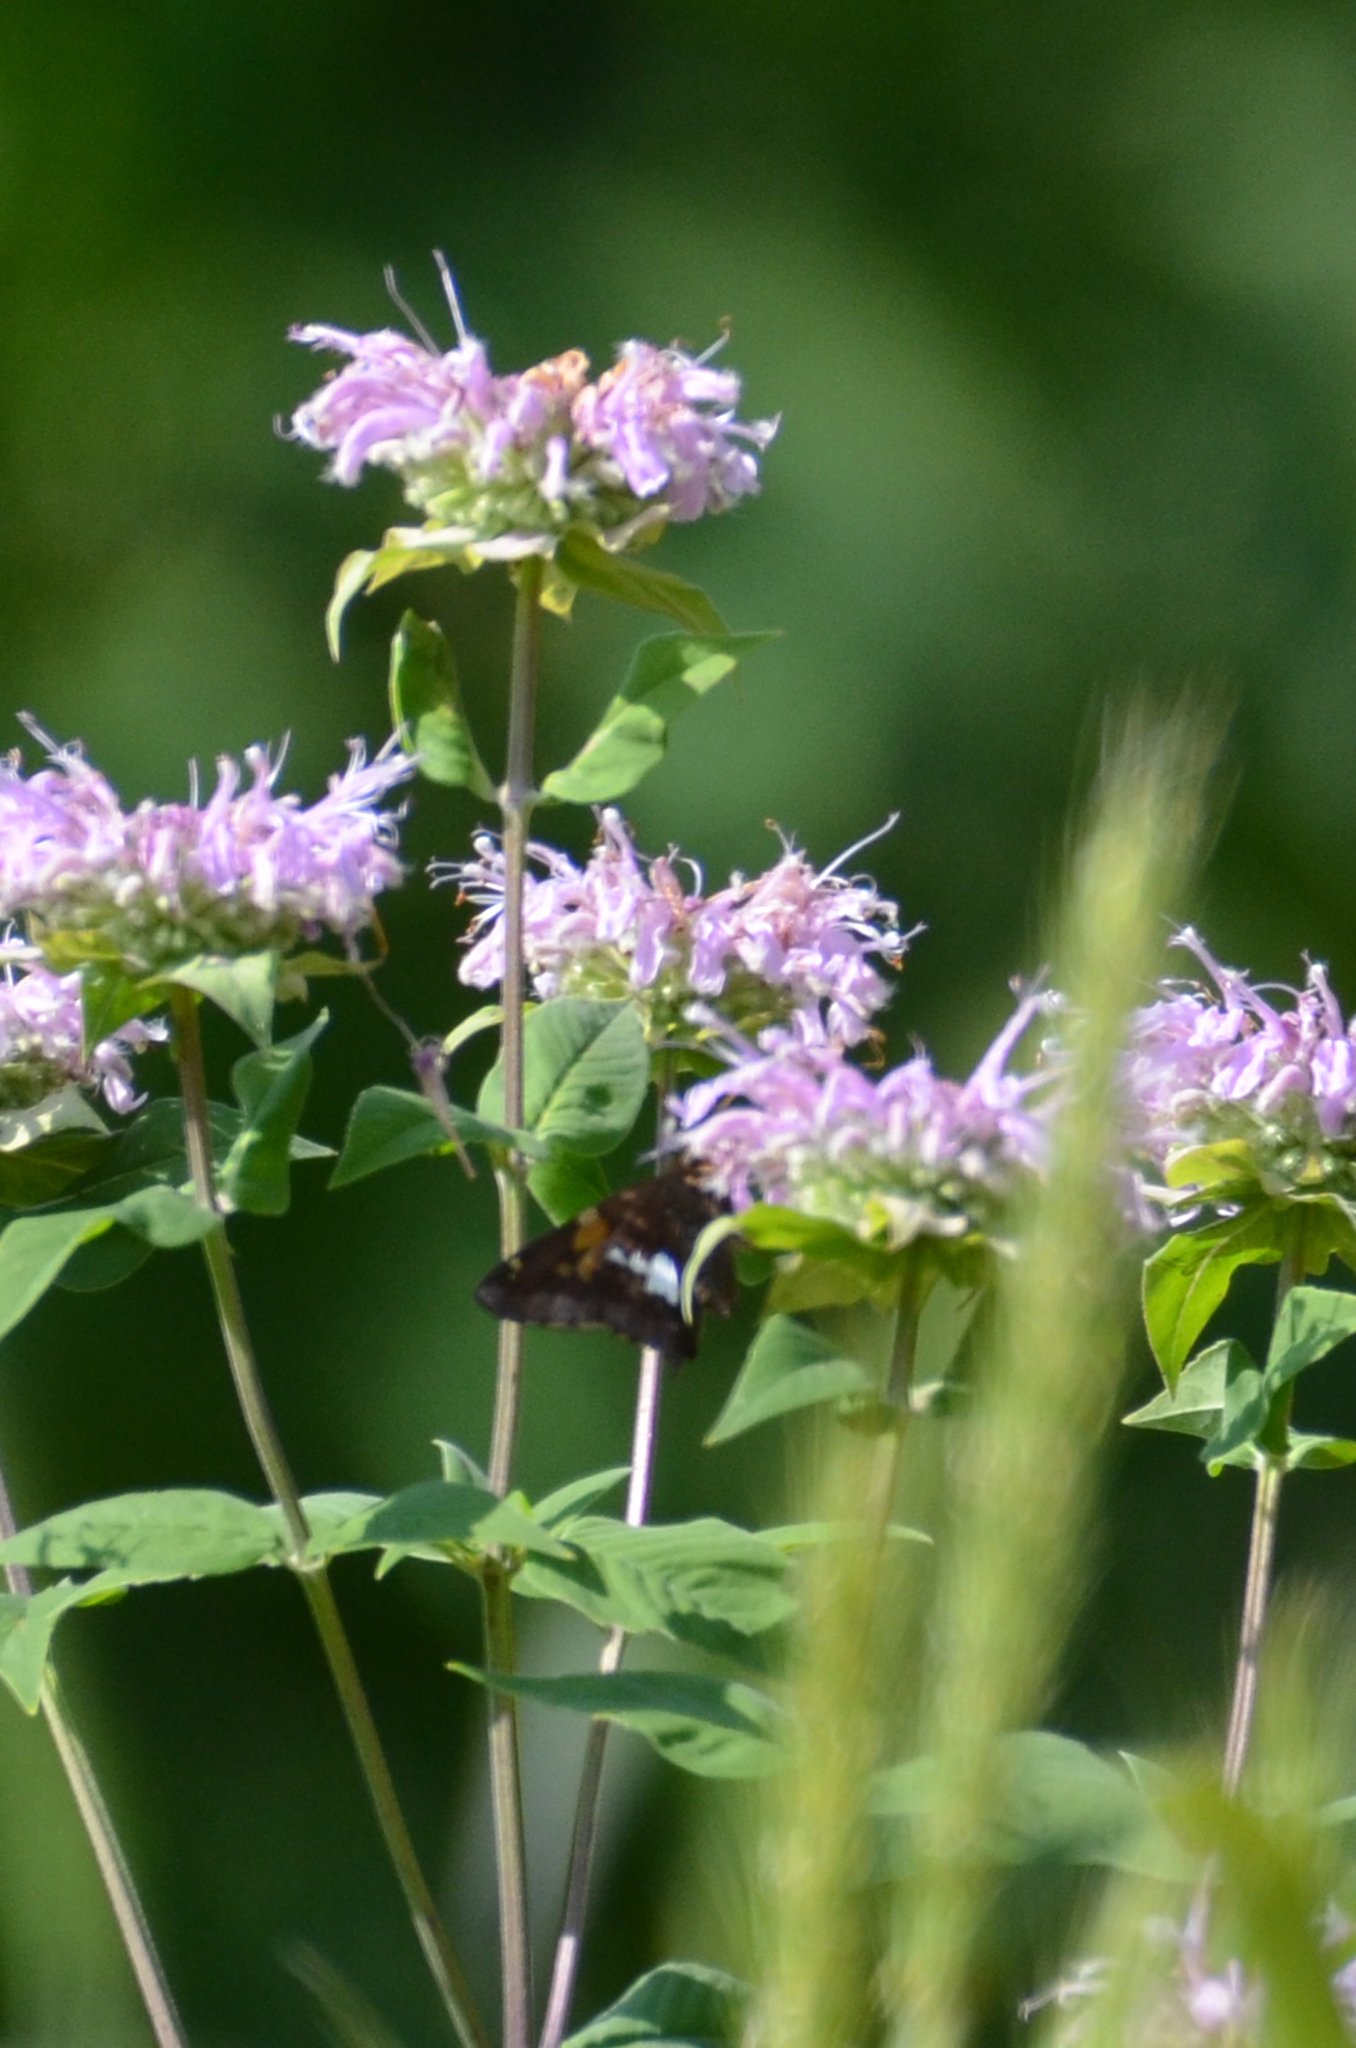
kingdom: Animalia
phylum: Arthropoda
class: Insecta
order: Lepidoptera
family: Hesperiidae
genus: Epargyreus
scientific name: Epargyreus clarus
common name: Silver-spotted skipper
